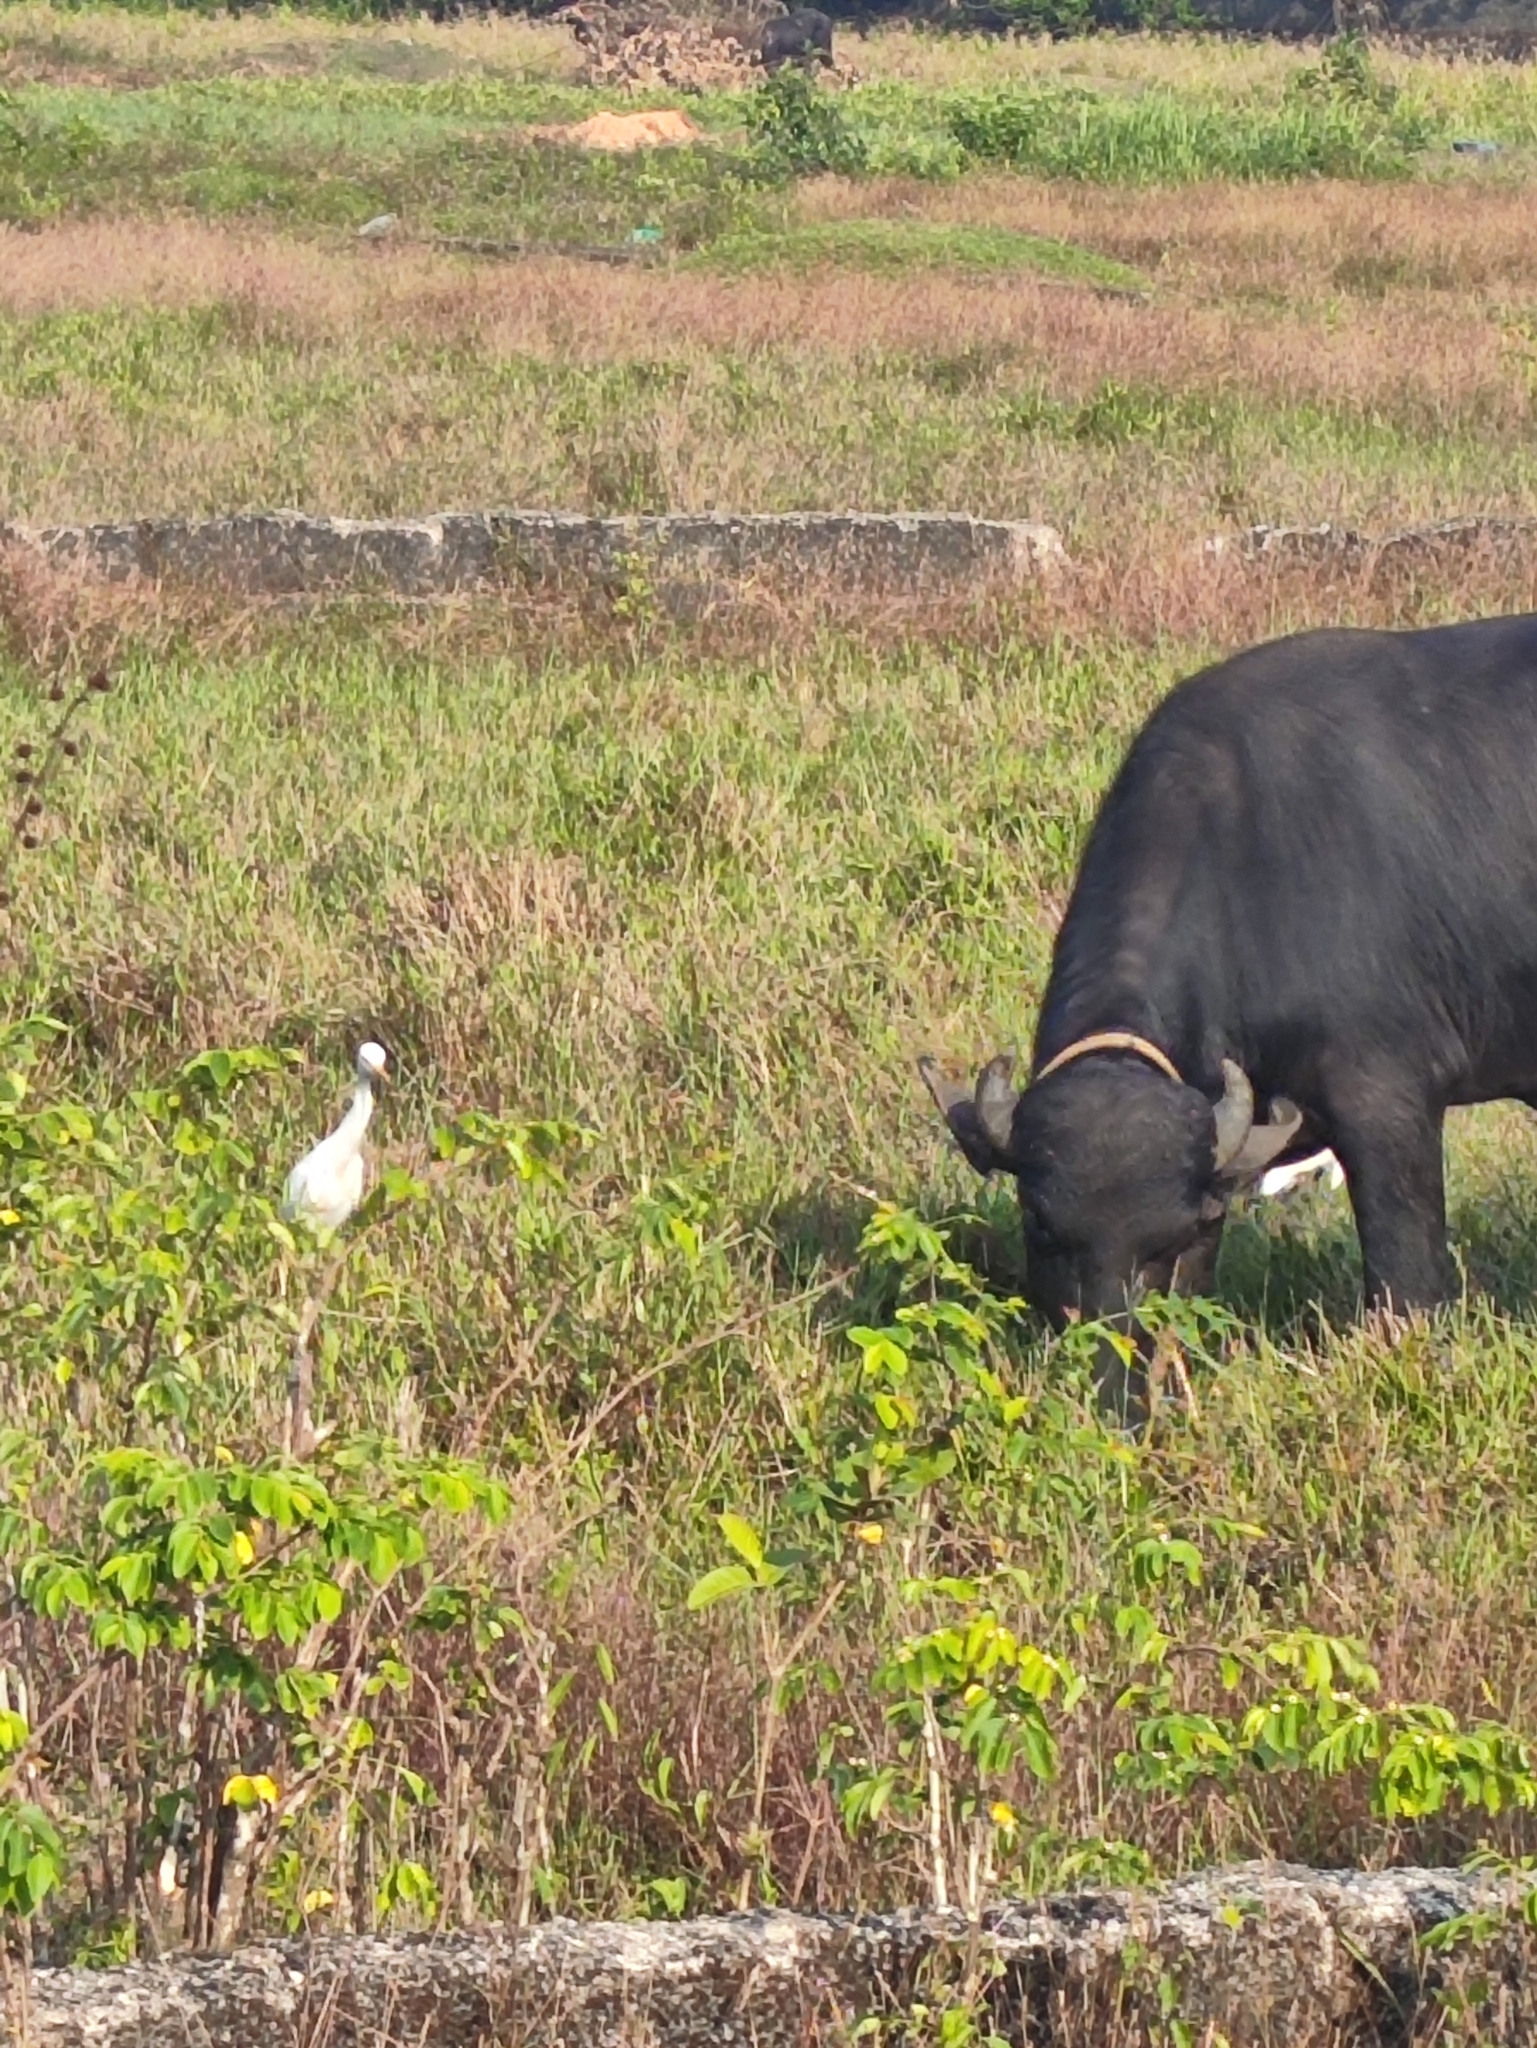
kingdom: Animalia
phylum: Chordata
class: Mammalia
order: Artiodactyla
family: Bovidae
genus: Bubalus
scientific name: Bubalus bubalis
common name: Water buffalo
